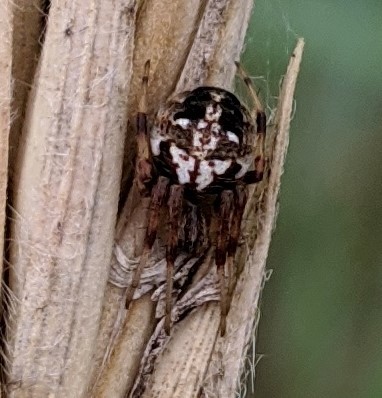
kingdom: Animalia
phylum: Arthropoda
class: Arachnida
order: Araneae
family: Araneidae
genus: Neoscona
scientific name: Neoscona arabesca
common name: Orb weavers
